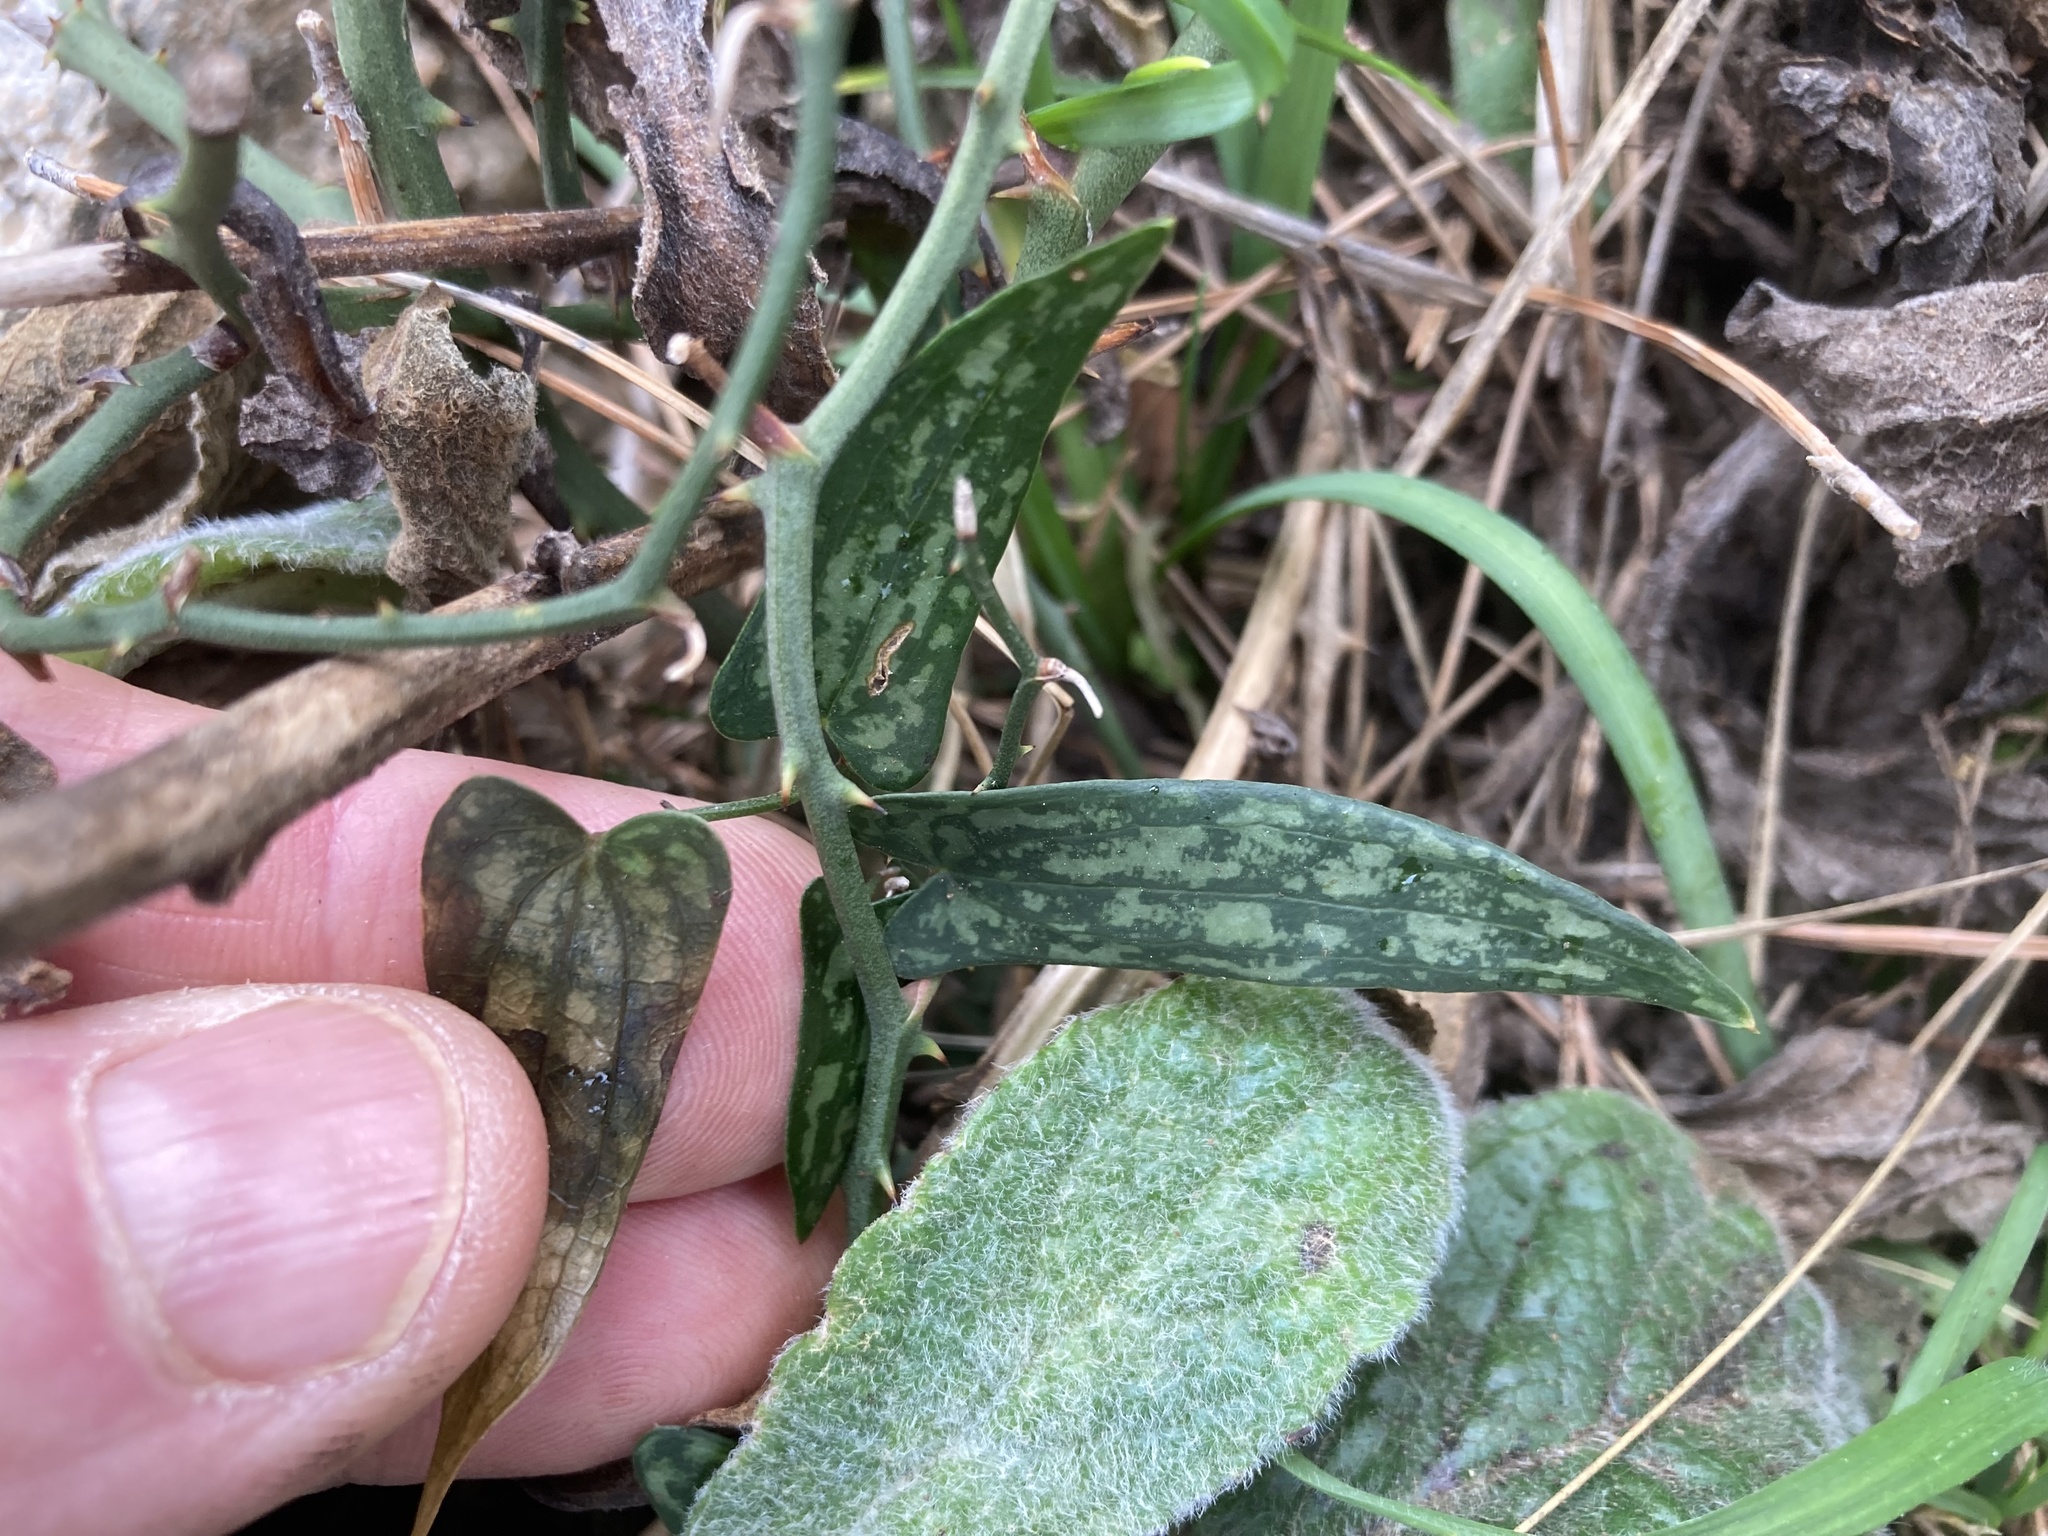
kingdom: Plantae
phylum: Tracheophyta
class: Liliopsida
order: Liliales
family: Smilacaceae
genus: Smilax
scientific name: Smilax aspera
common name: Common smilax
